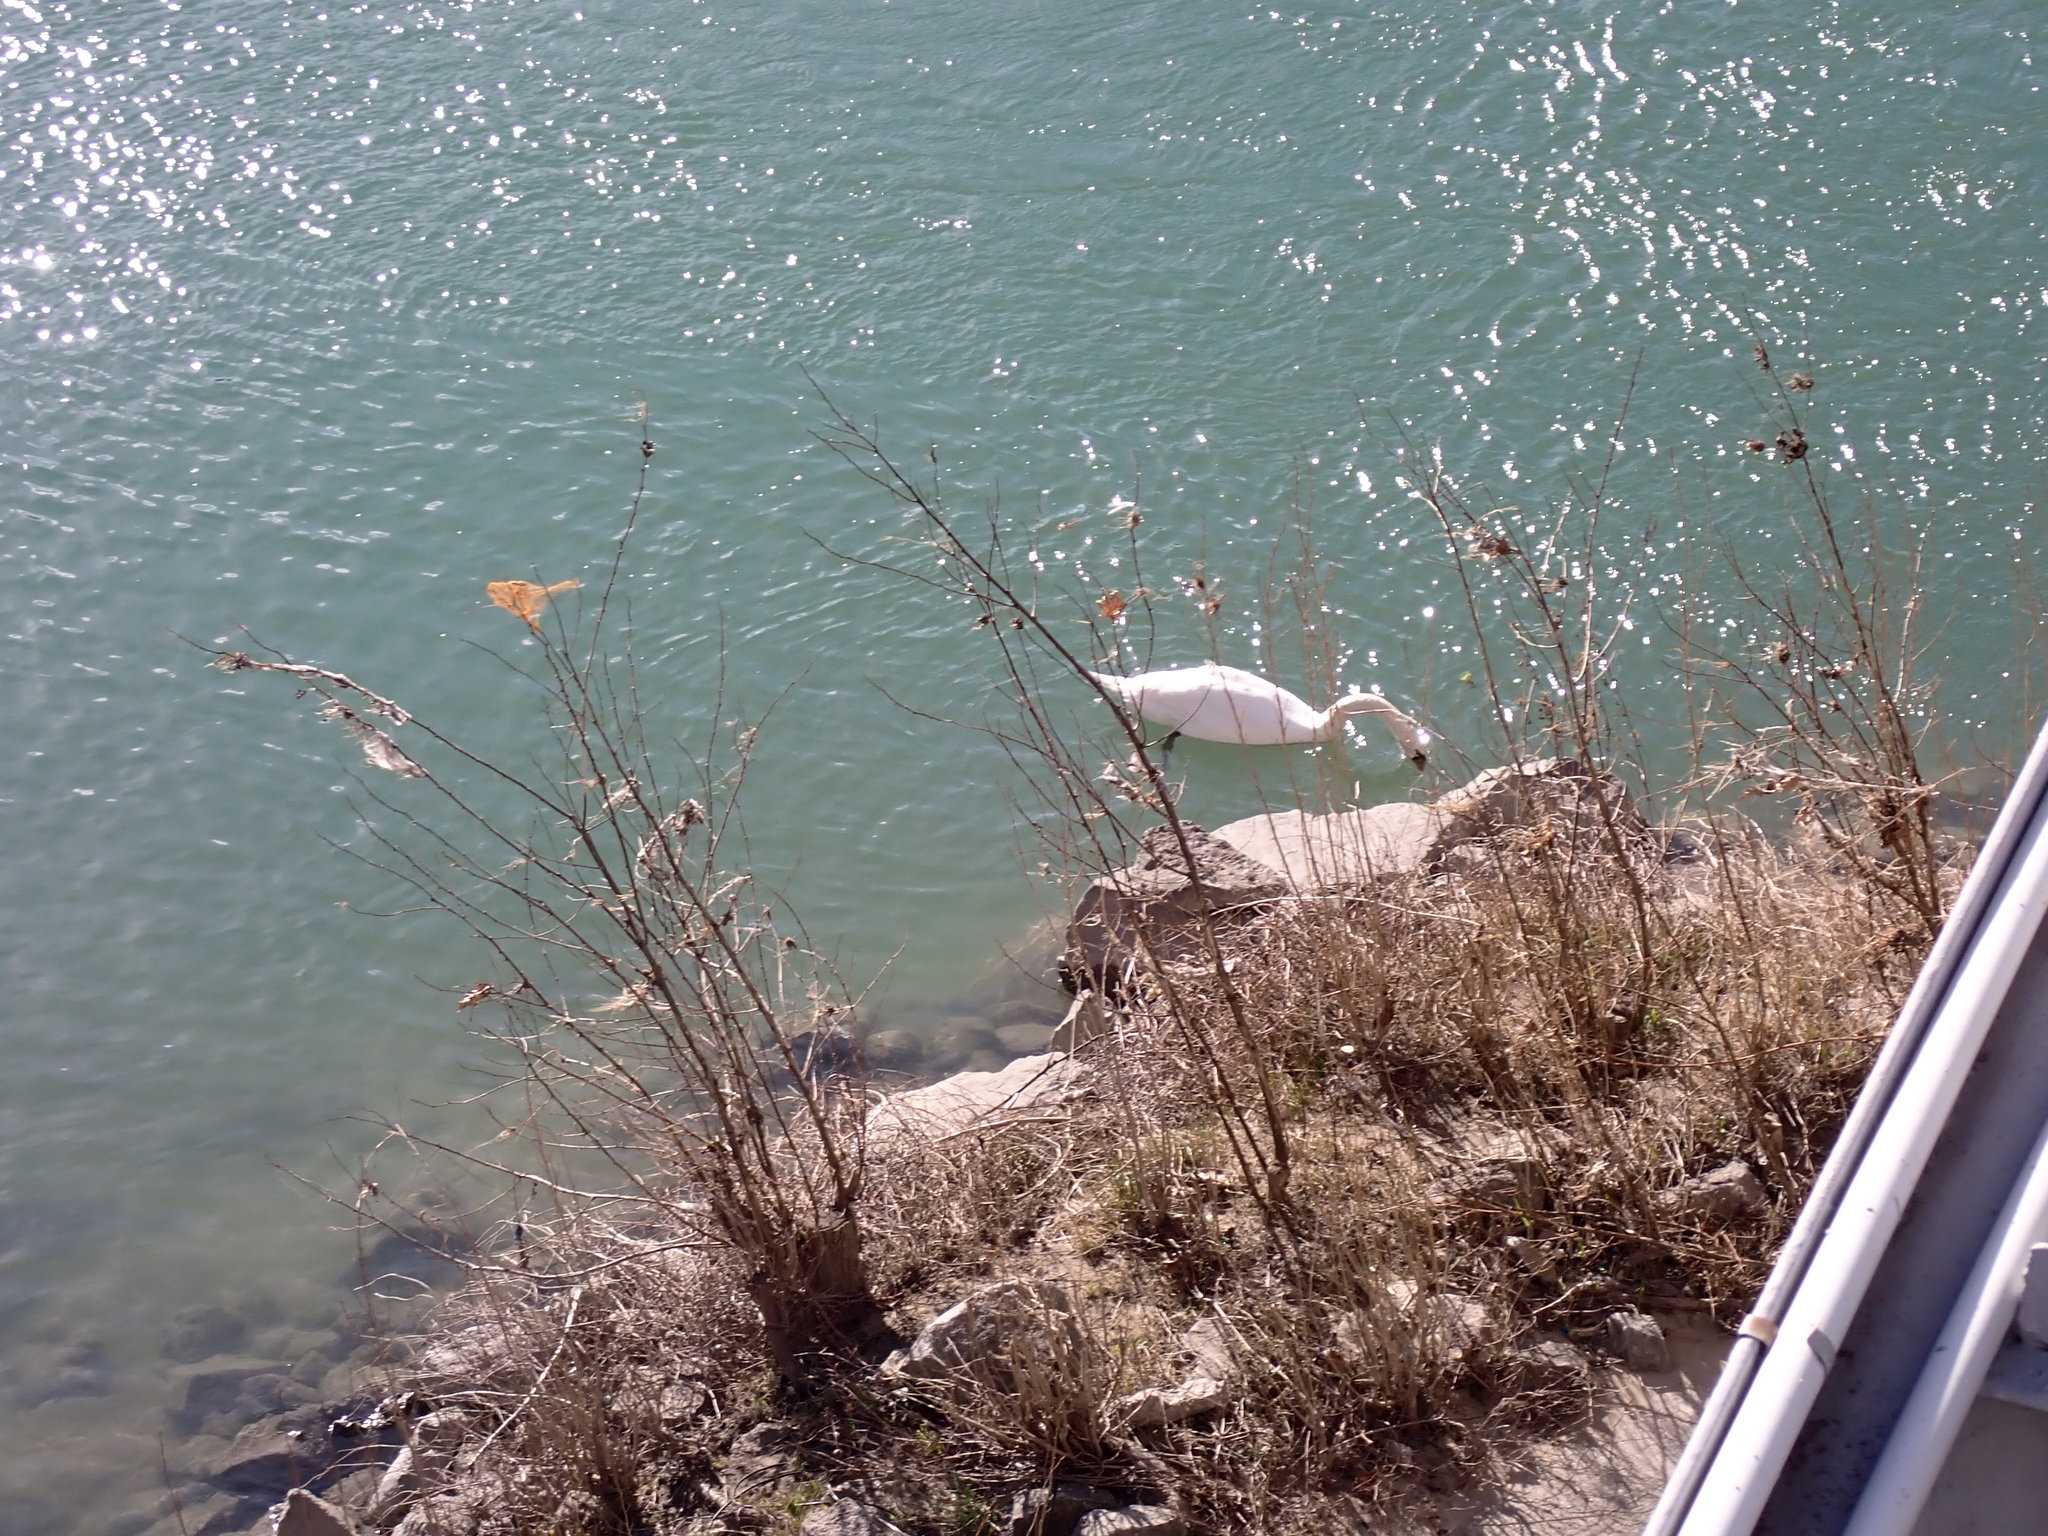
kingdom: Animalia
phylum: Chordata
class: Aves
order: Anseriformes
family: Anatidae
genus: Cygnus
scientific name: Cygnus olor
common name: Mute swan
